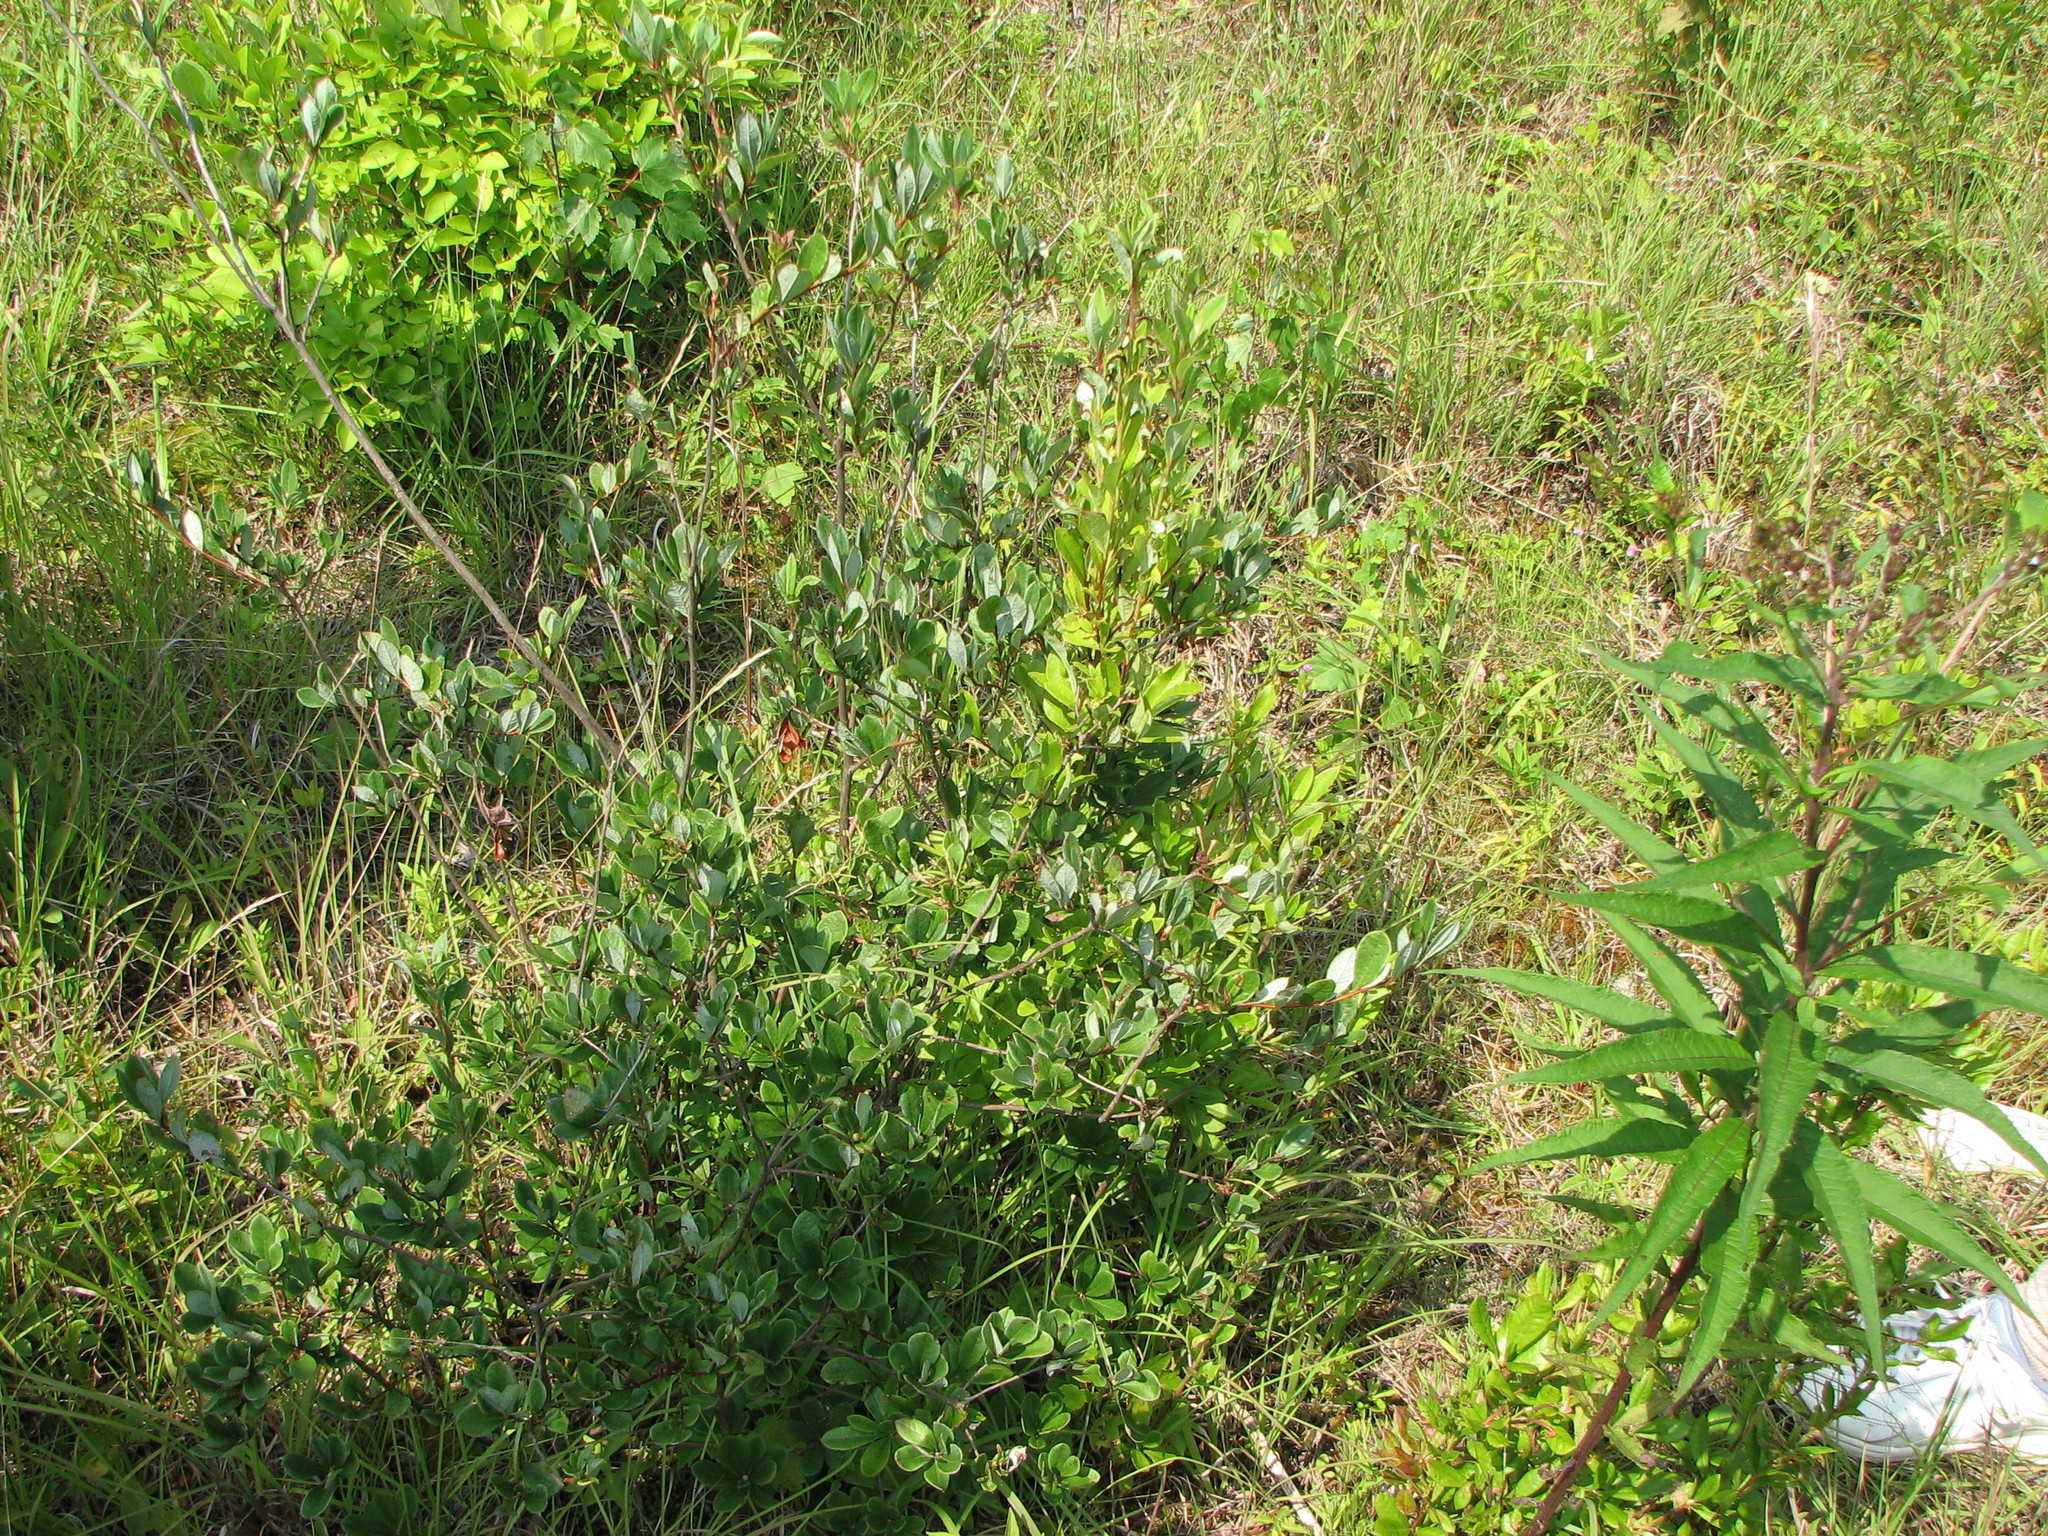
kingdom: Plantae
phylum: Tracheophyta
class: Magnoliopsida
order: Ericales
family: Ericaceae
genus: Rhododendron
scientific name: Rhododendron viscosum
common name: Clammy azalea
